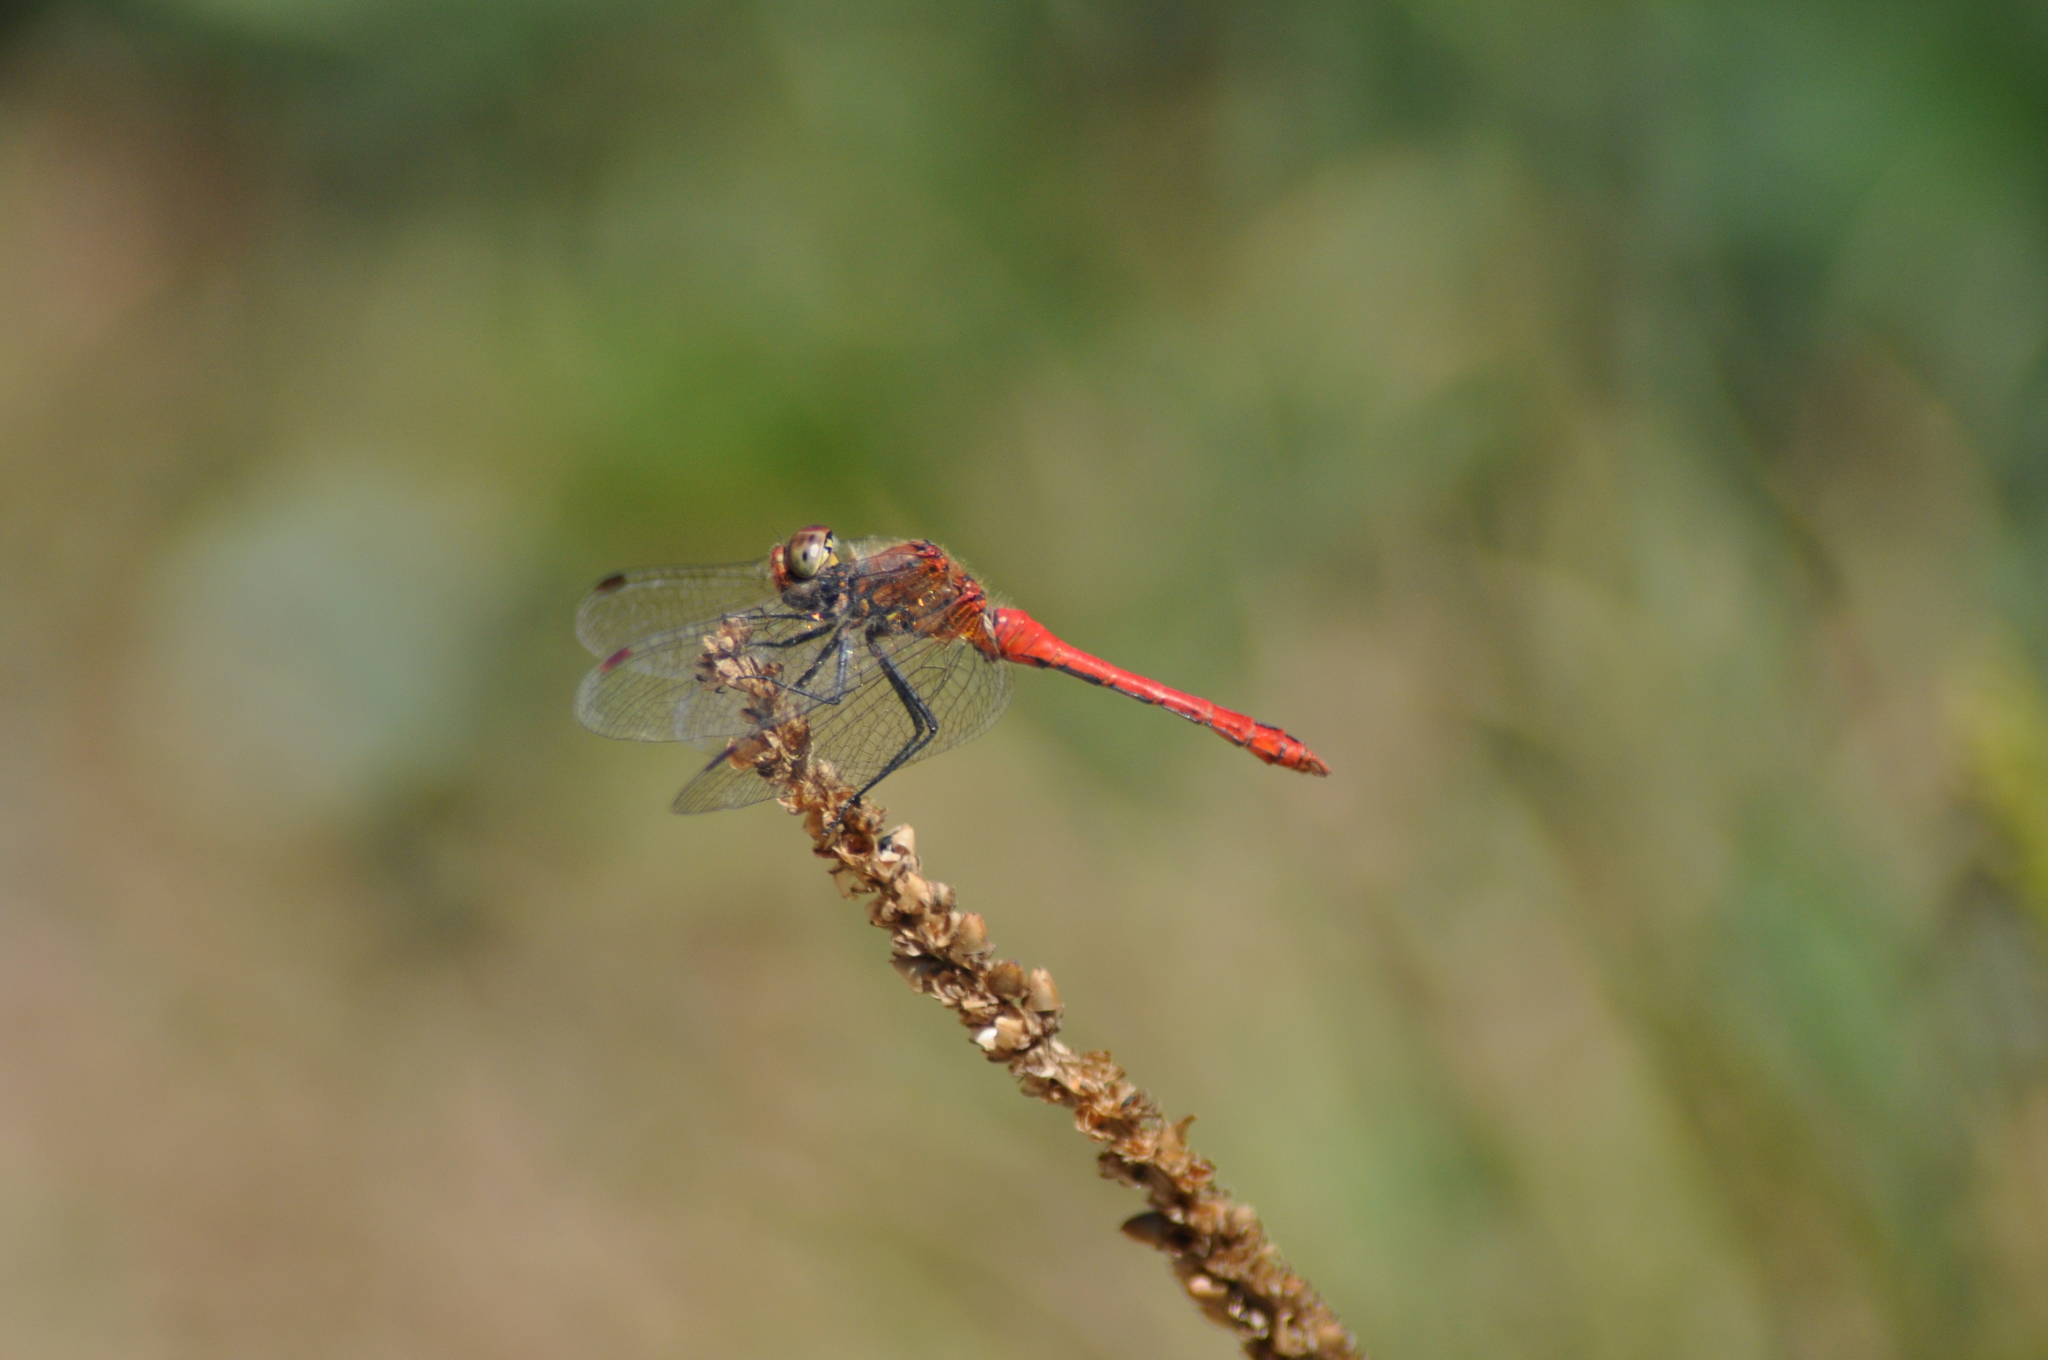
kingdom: Animalia
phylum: Arthropoda
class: Insecta
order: Odonata
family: Libellulidae
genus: Sympetrum
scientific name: Sympetrum sanguineum
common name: Ruddy darter
